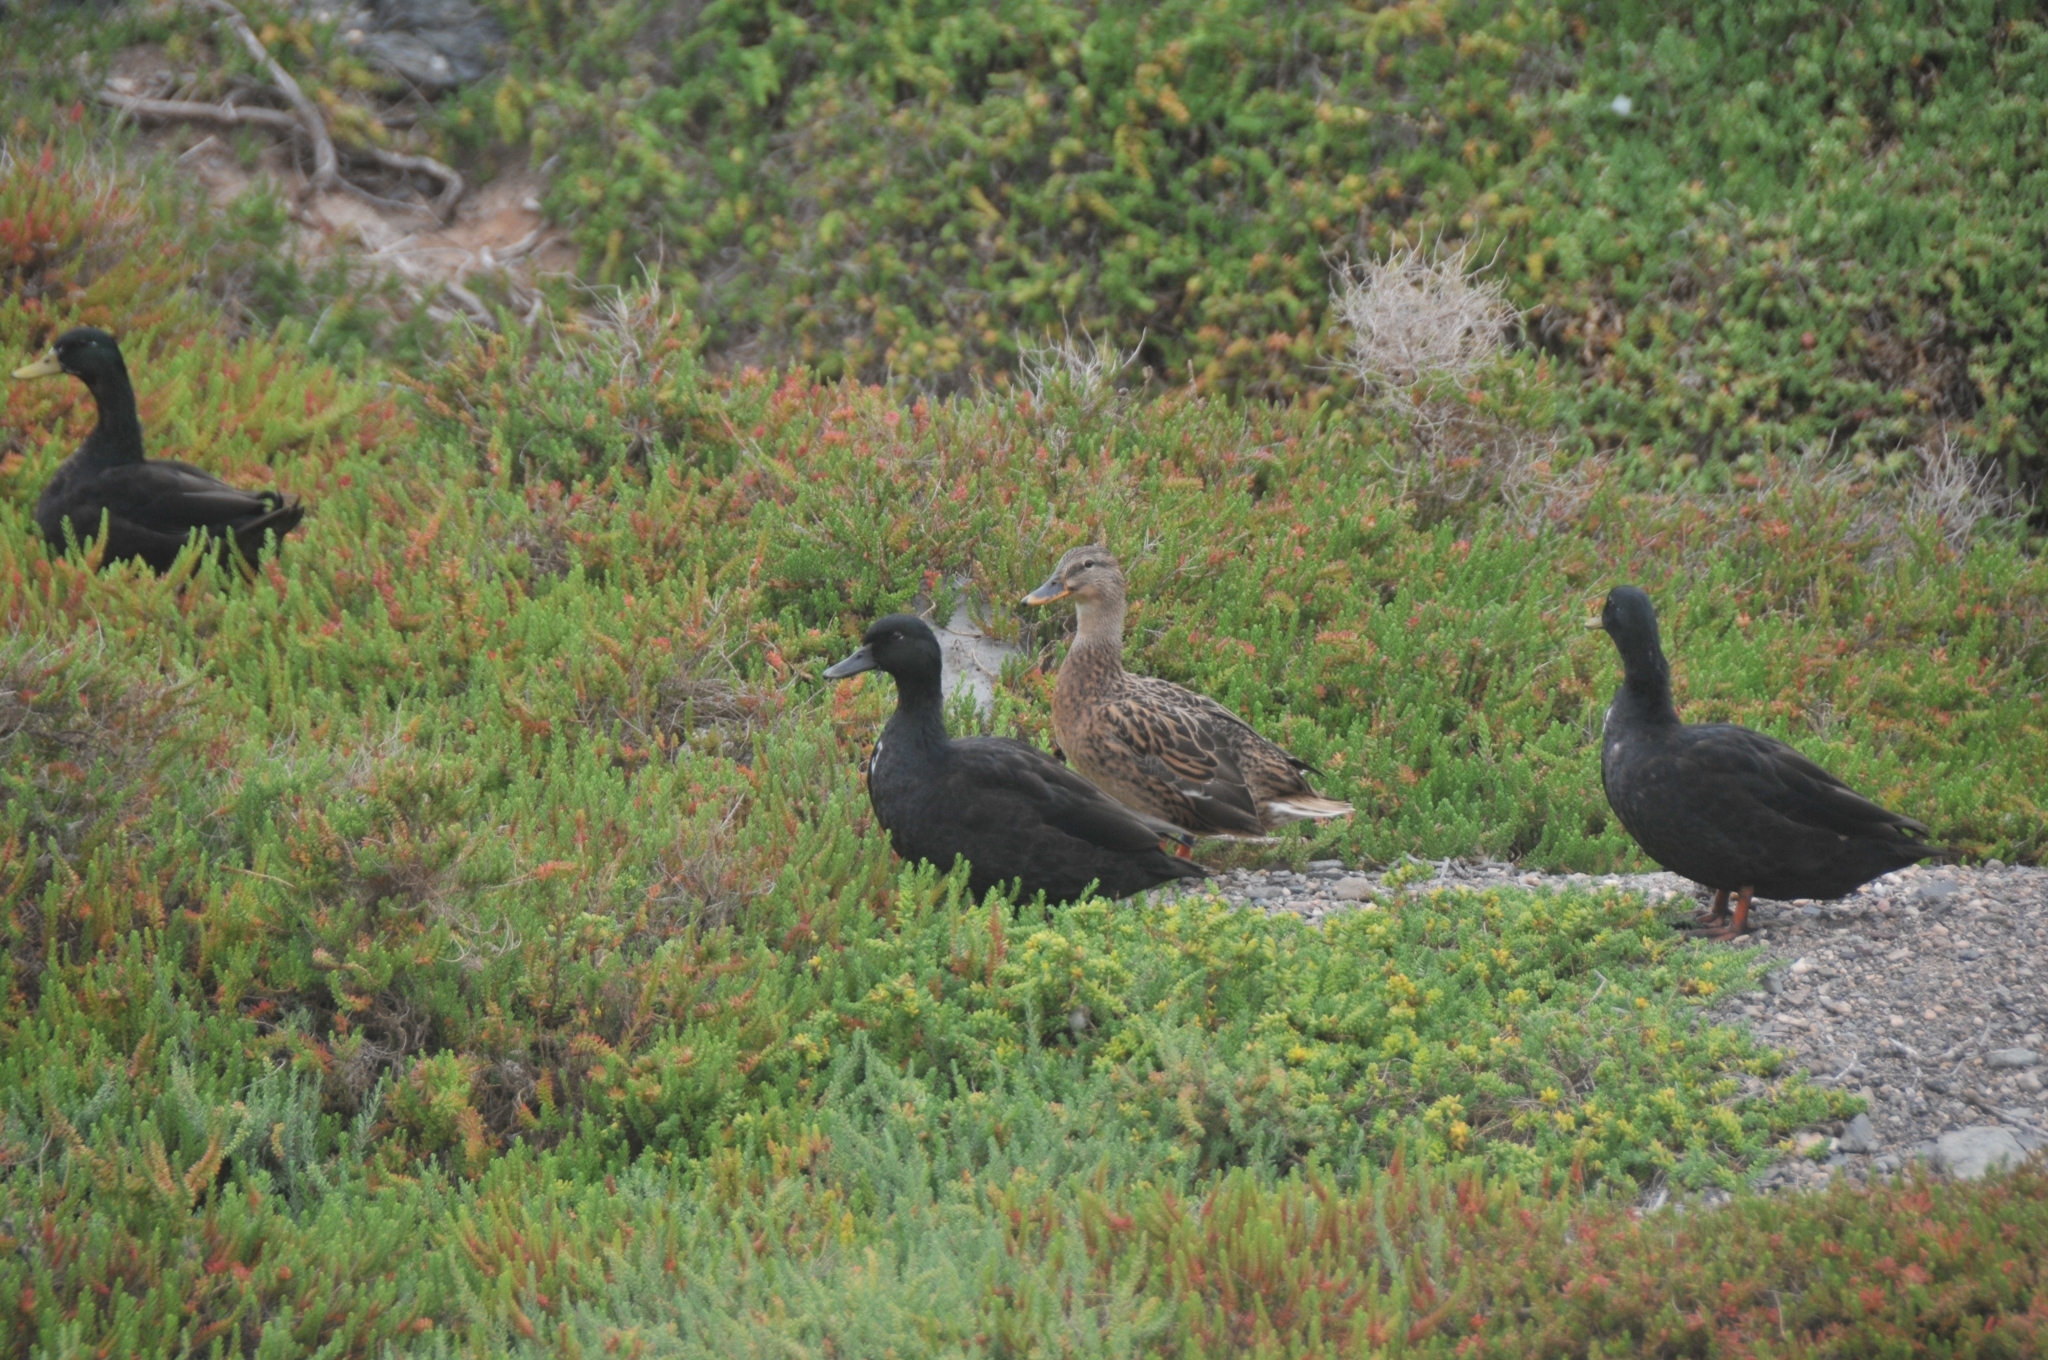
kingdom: Animalia
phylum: Chordata
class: Aves
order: Anseriformes
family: Anatidae
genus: Anas
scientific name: Anas platyrhynchos
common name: Mallard
